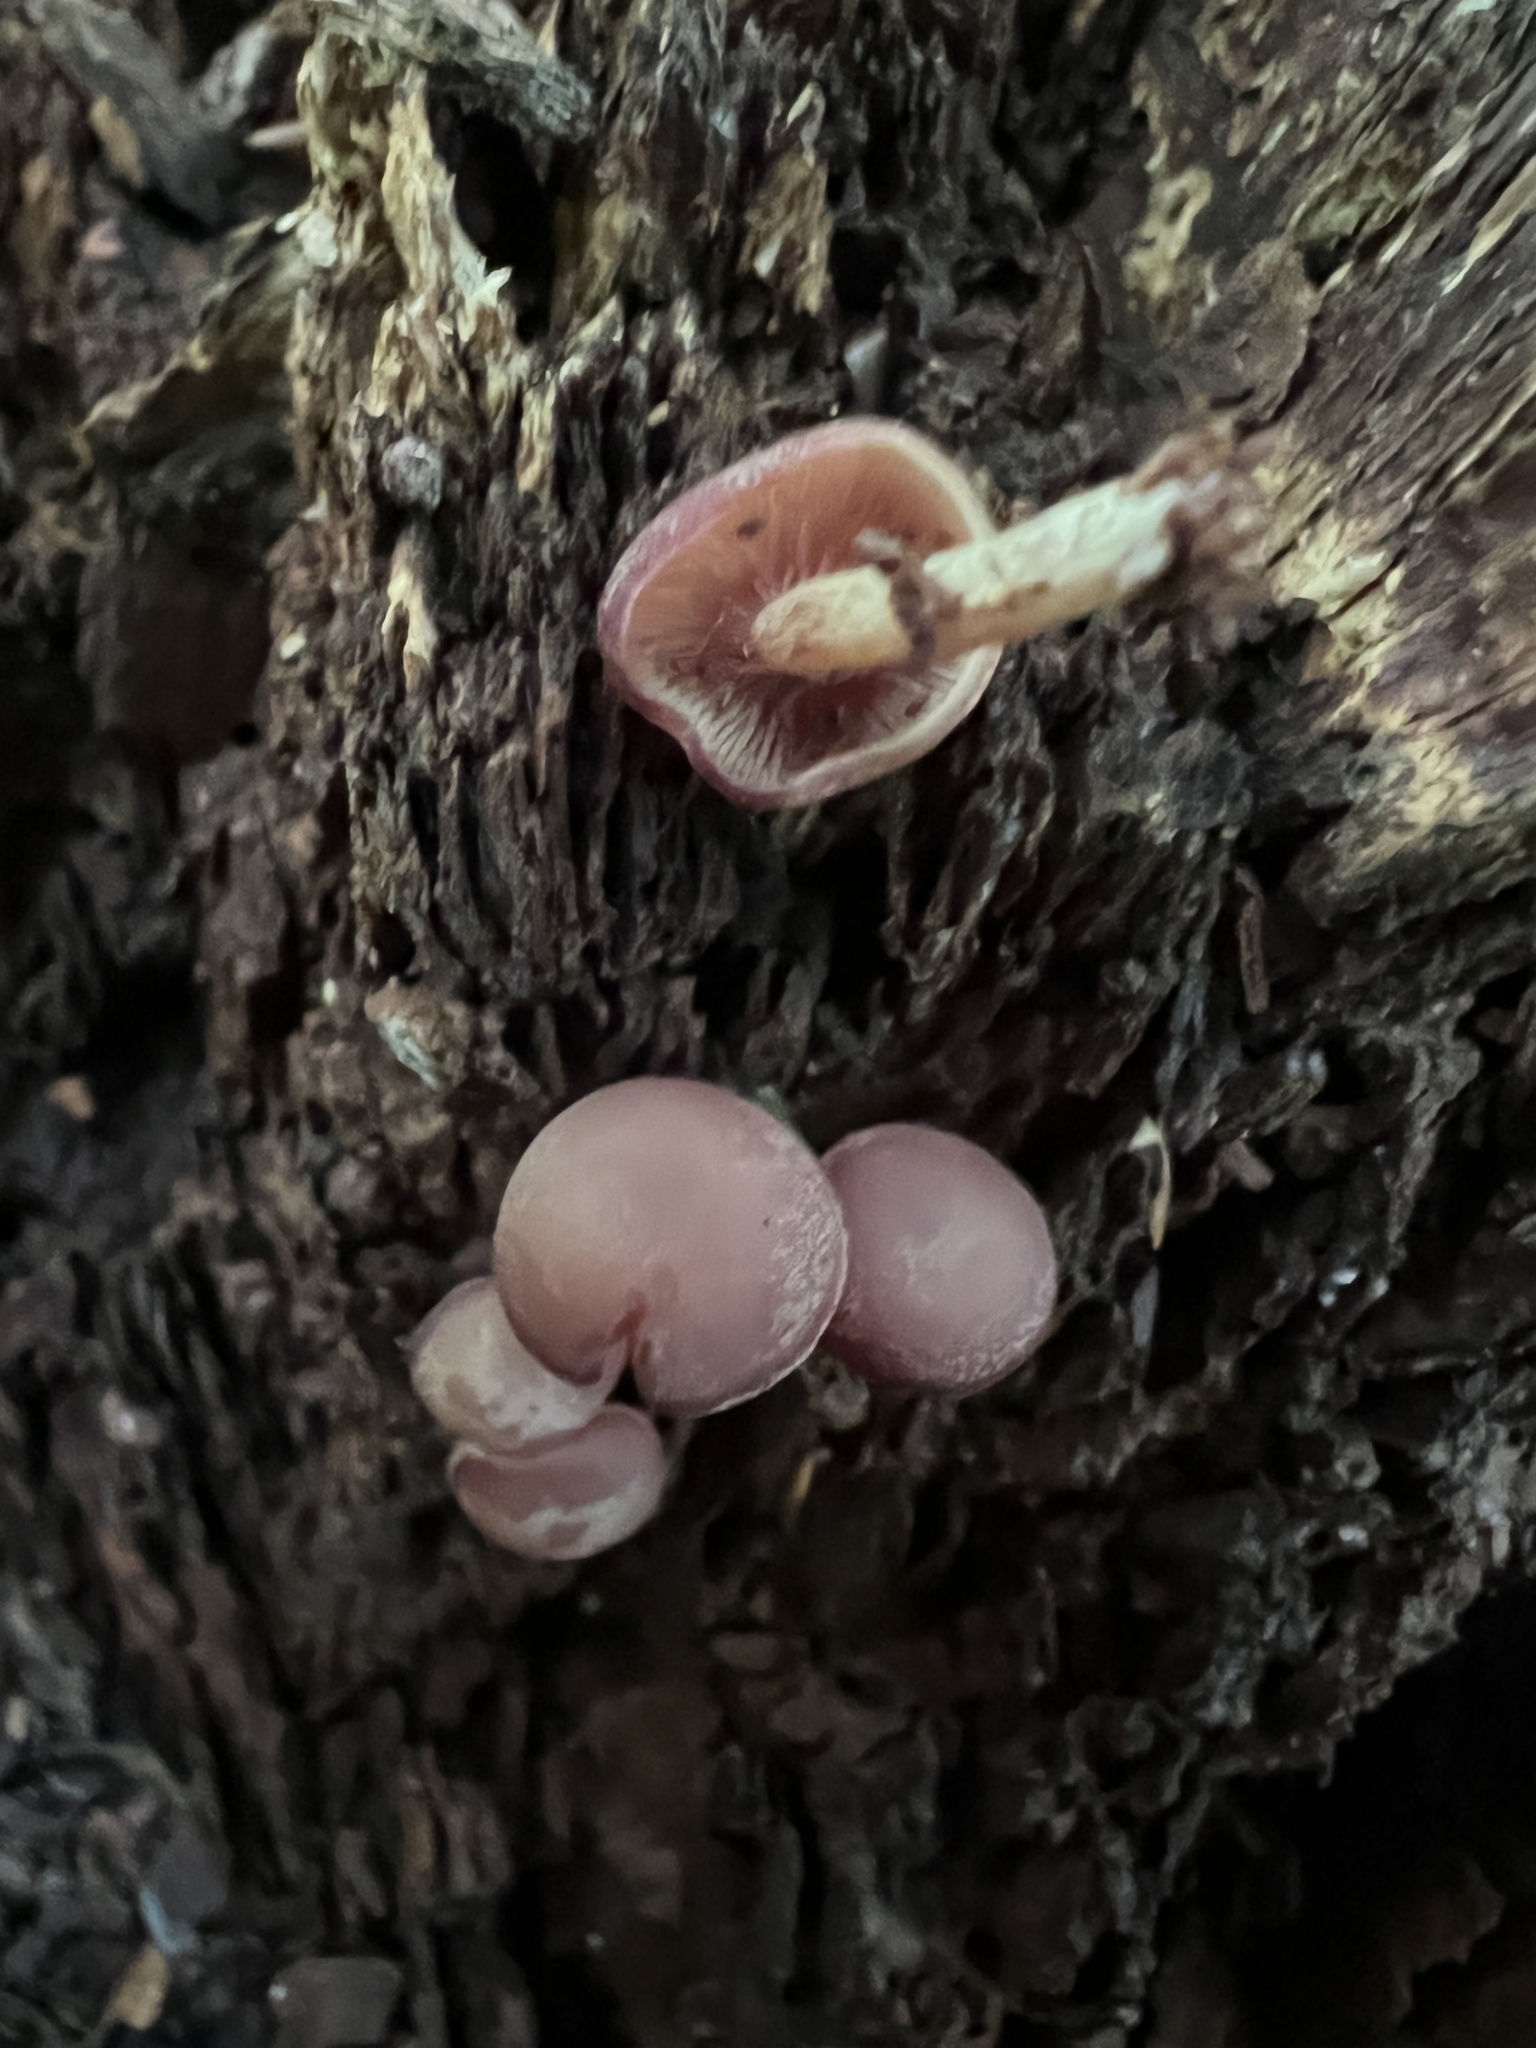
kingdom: Fungi
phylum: Basidiomycota
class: Agaricomycetes
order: Agaricales
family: Callistosporiaceae
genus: Callistosporium
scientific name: Callistosporium purpureomarginatum
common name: Purple-edged lute
